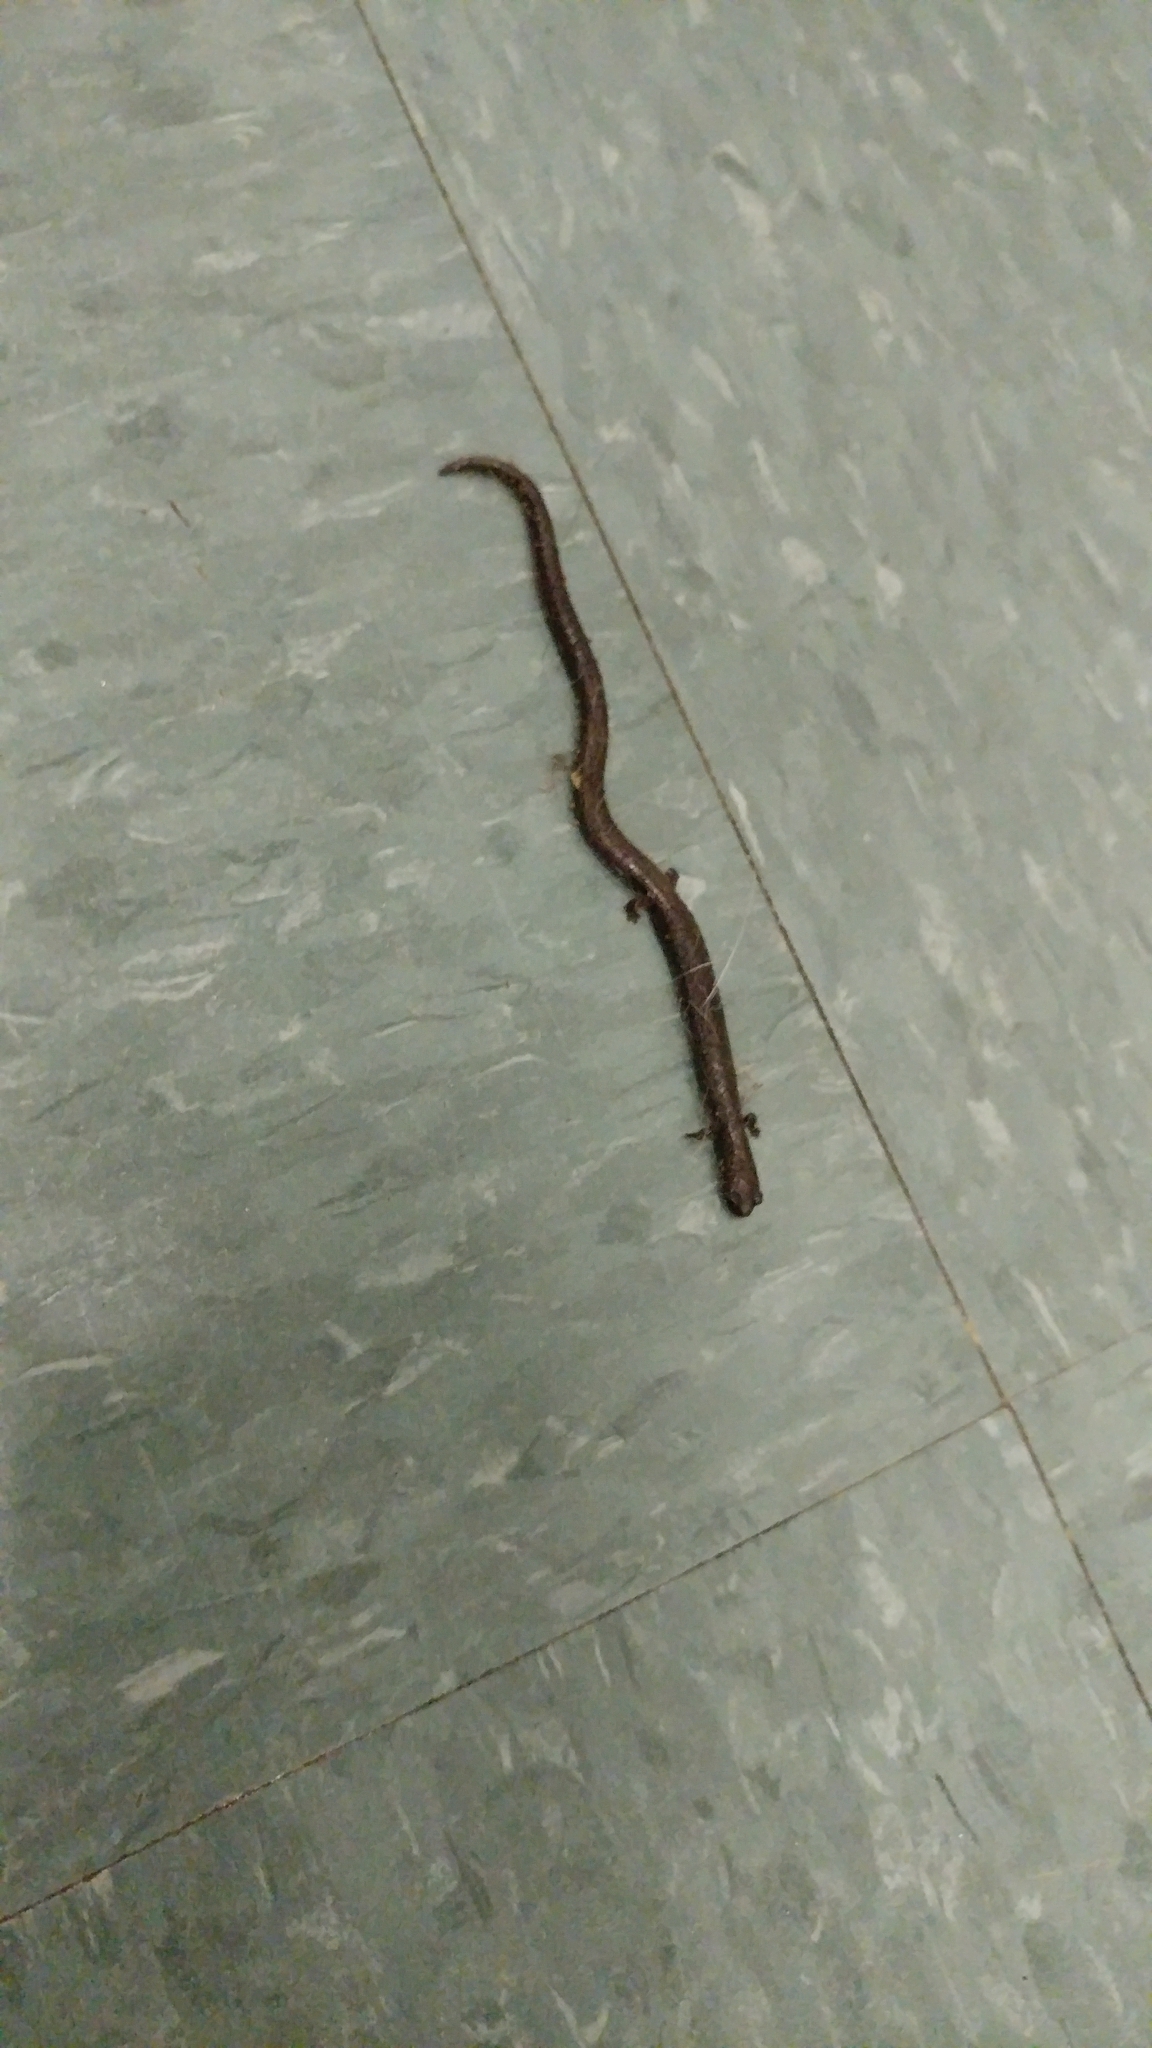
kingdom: Animalia
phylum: Chordata
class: Amphibia
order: Caudata
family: Plethodontidae
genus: Batrachoseps
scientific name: Batrachoseps nigriventris
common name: Black-bellied slender salamander
